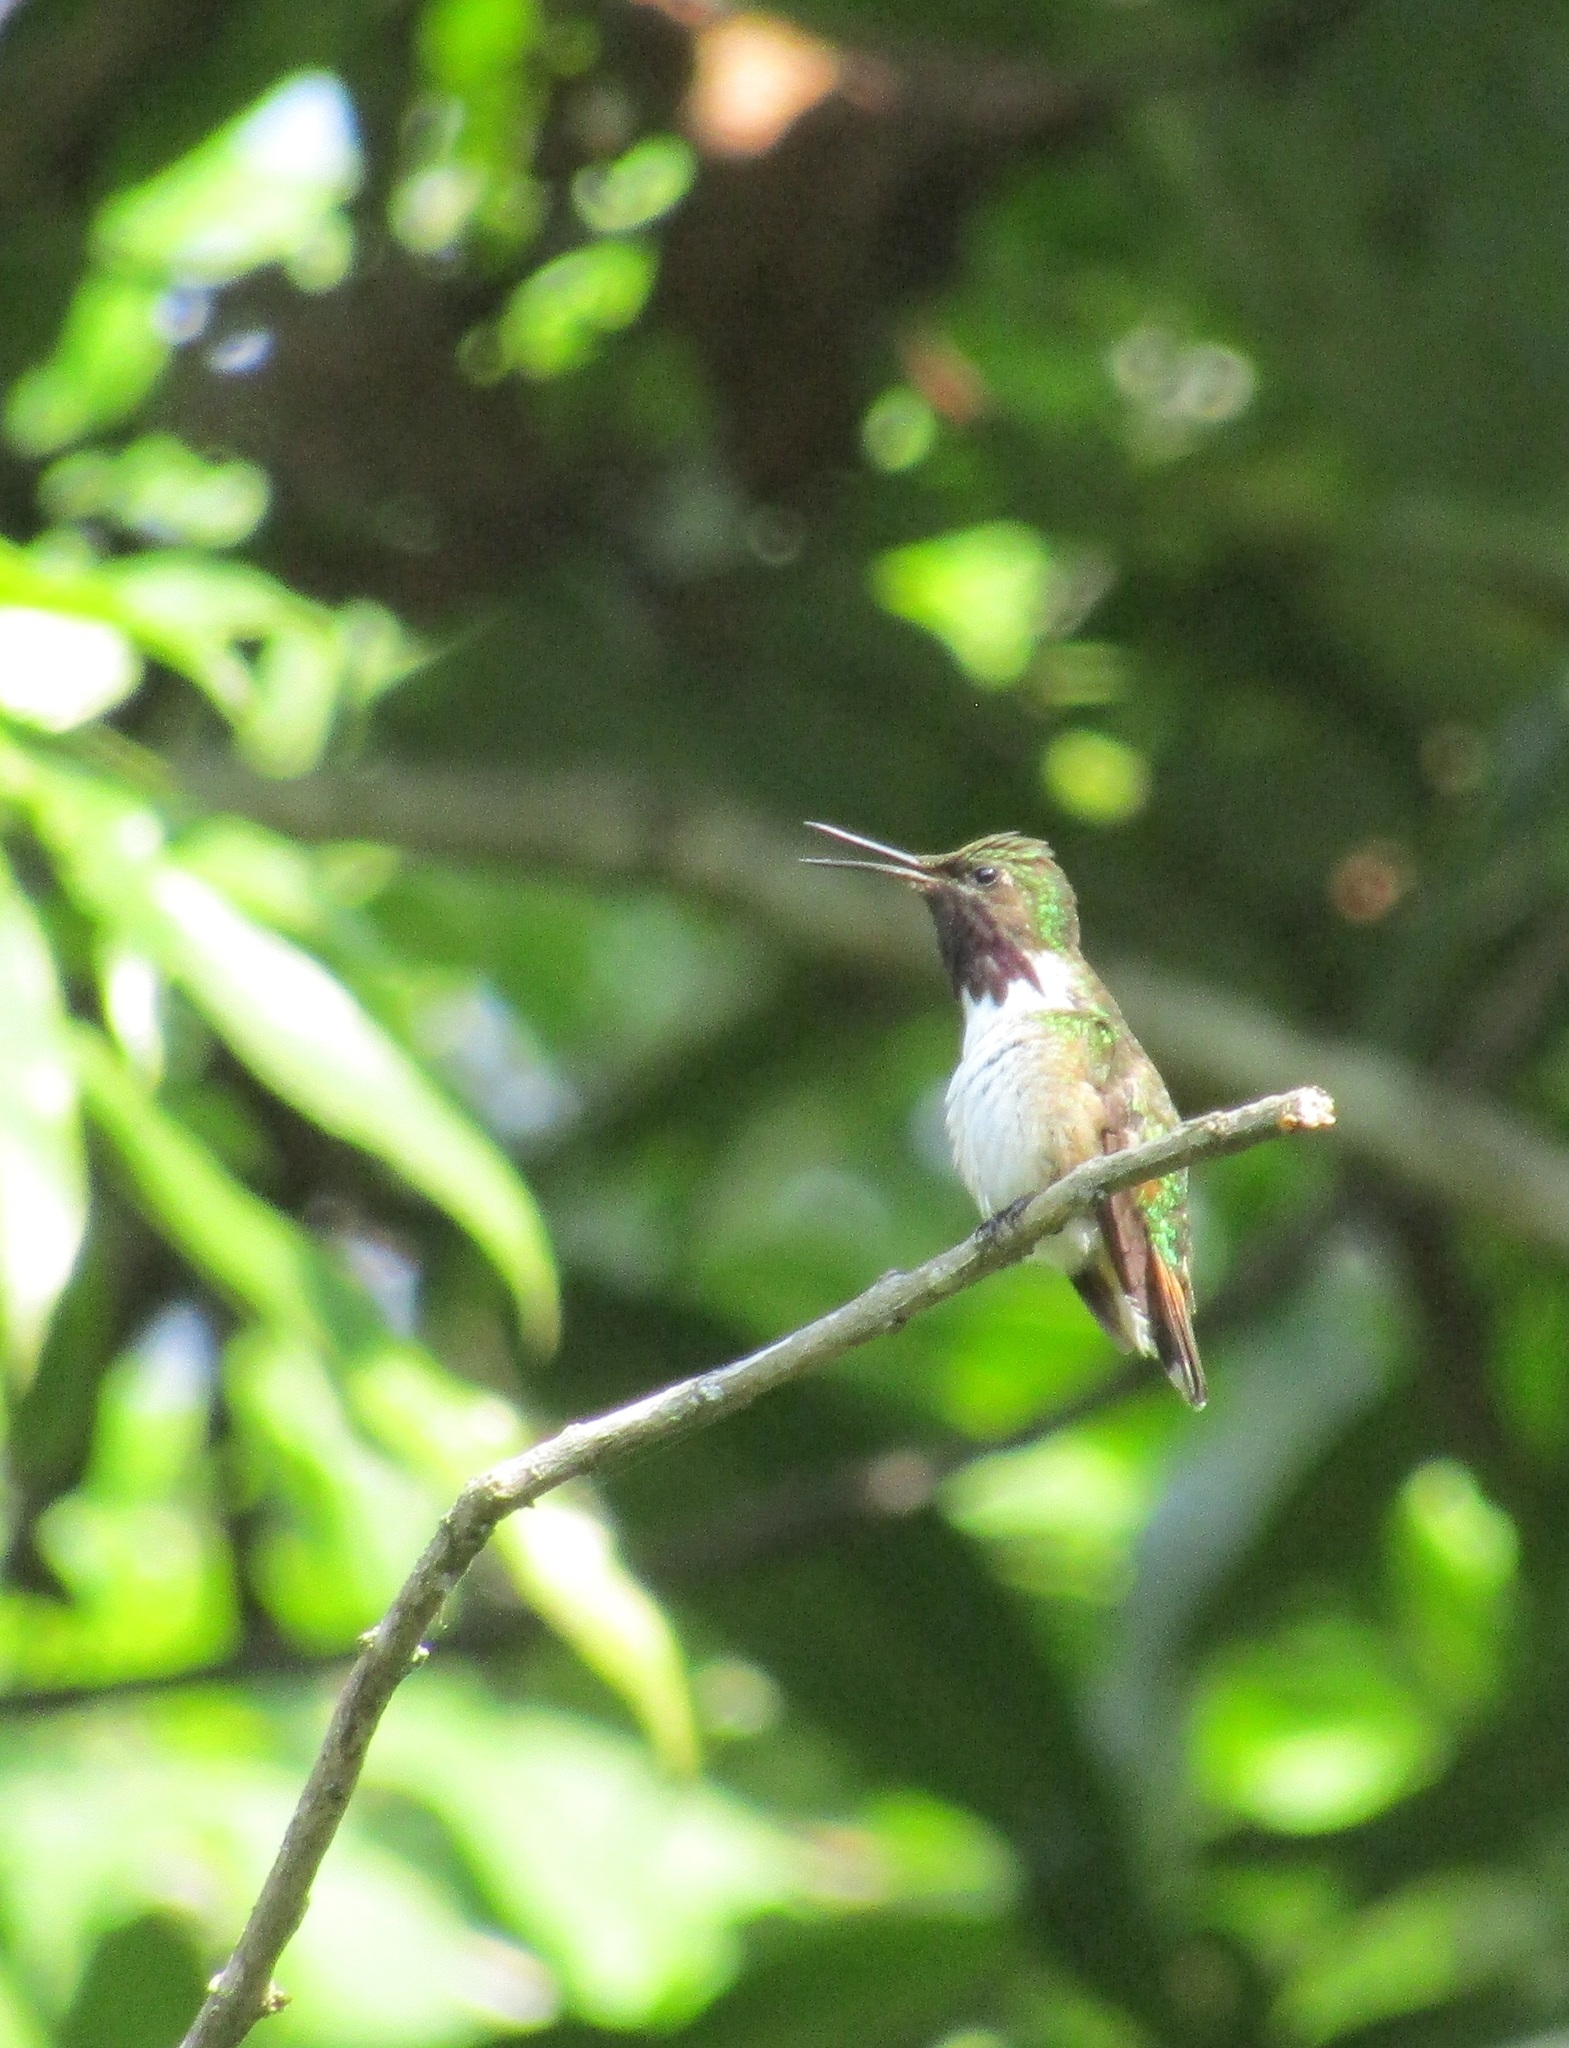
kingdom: Animalia
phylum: Chordata
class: Aves
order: Apodiformes
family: Trochilidae
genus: Selasphorus
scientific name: Selasphorus heloisa
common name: Bumblebee hummingbird
